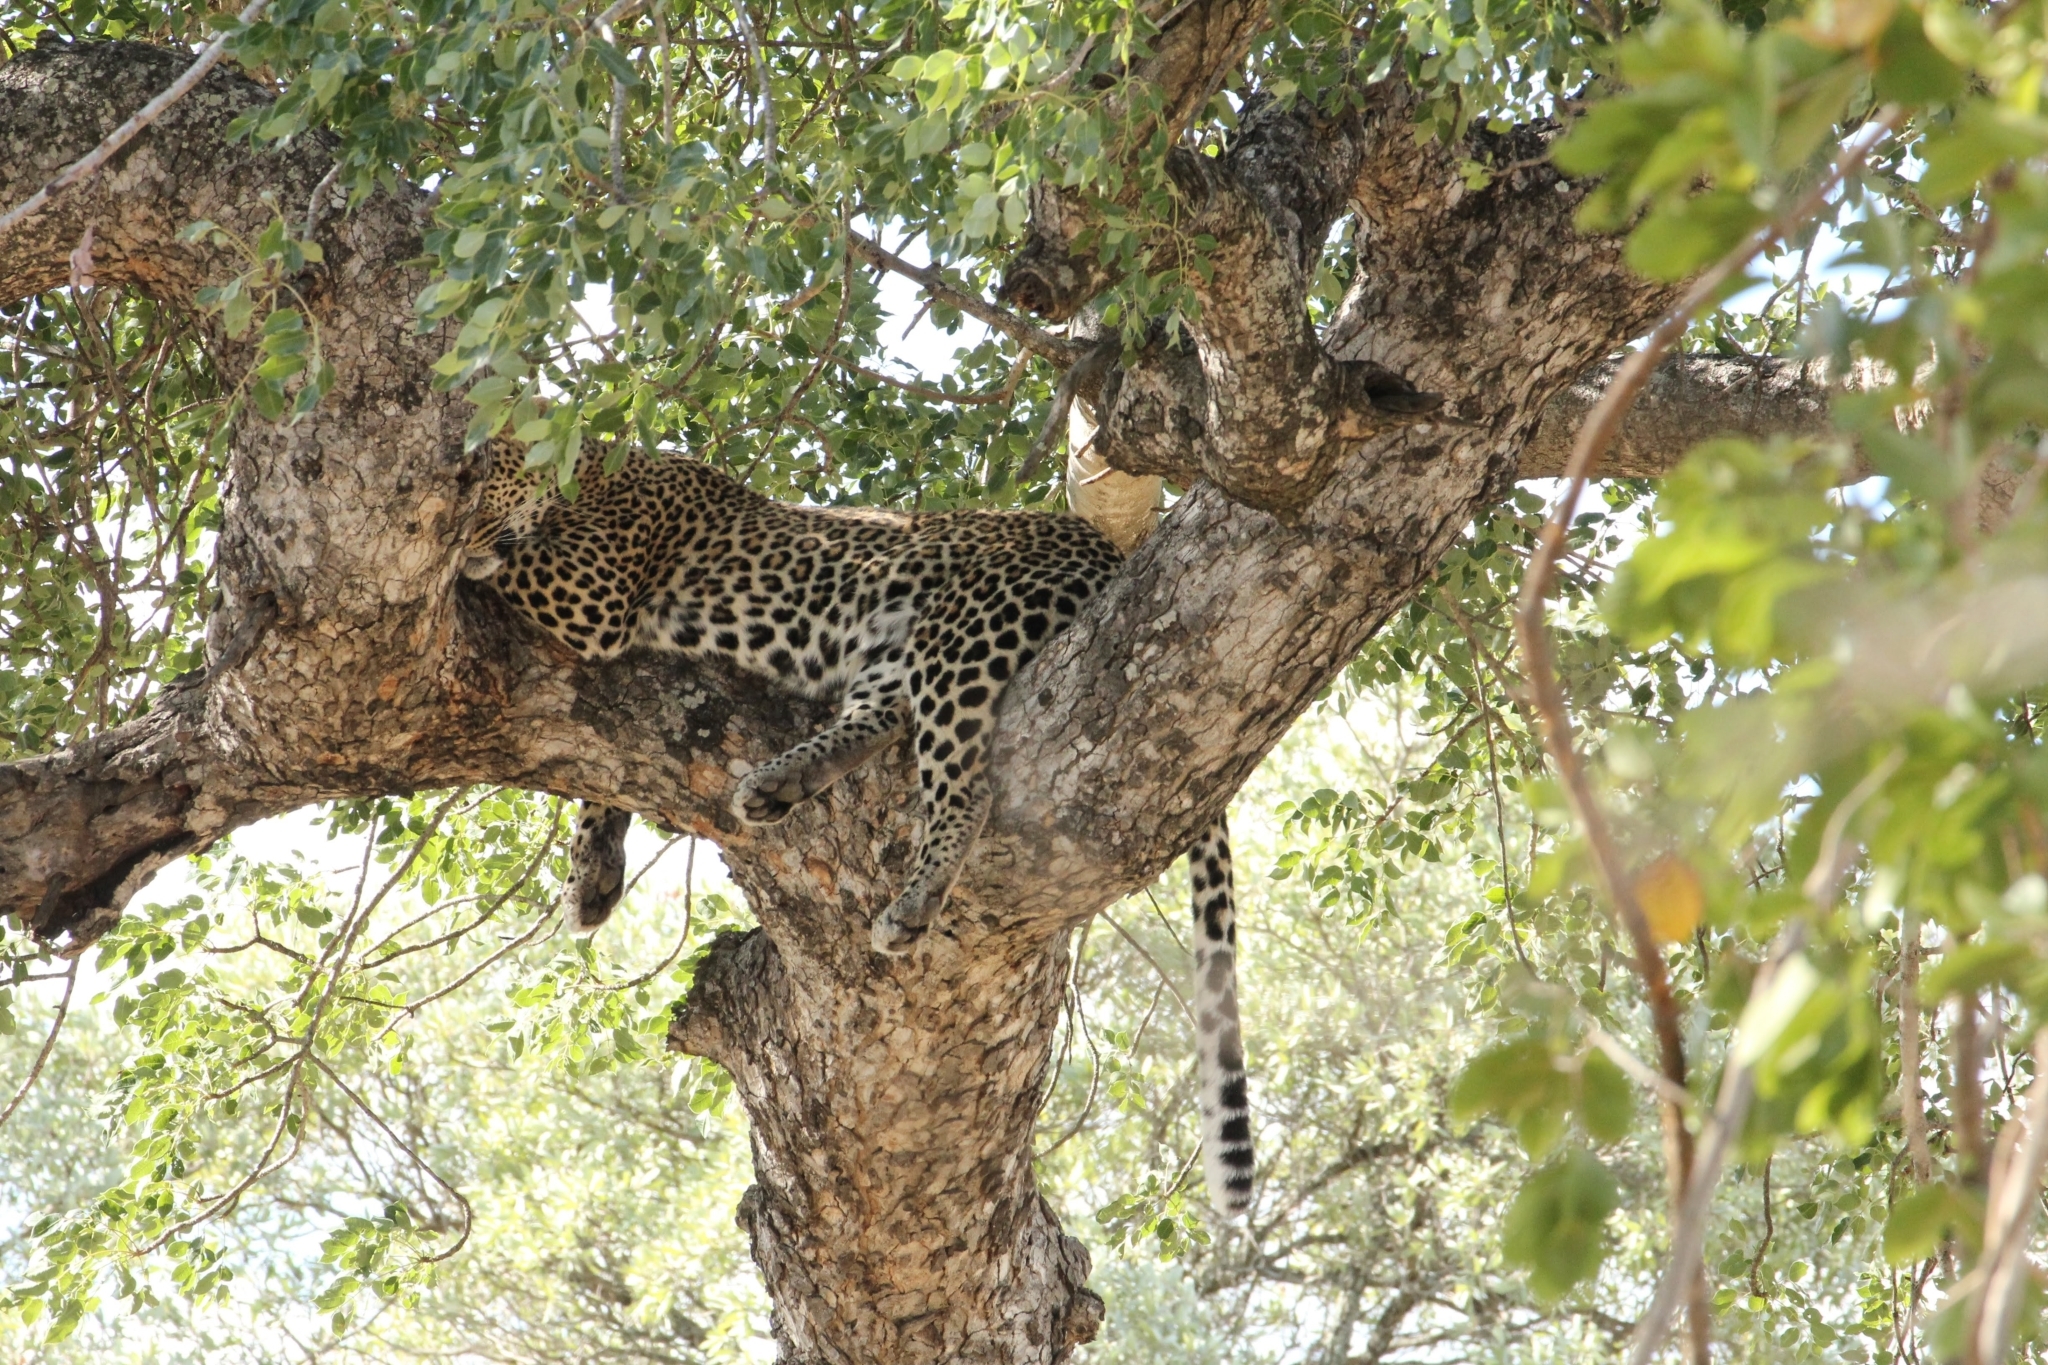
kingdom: Animalia
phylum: Chordata
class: Mammalia
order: Carnivora
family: Felidae
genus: Panthera
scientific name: Panthera pardus
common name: Leopard
